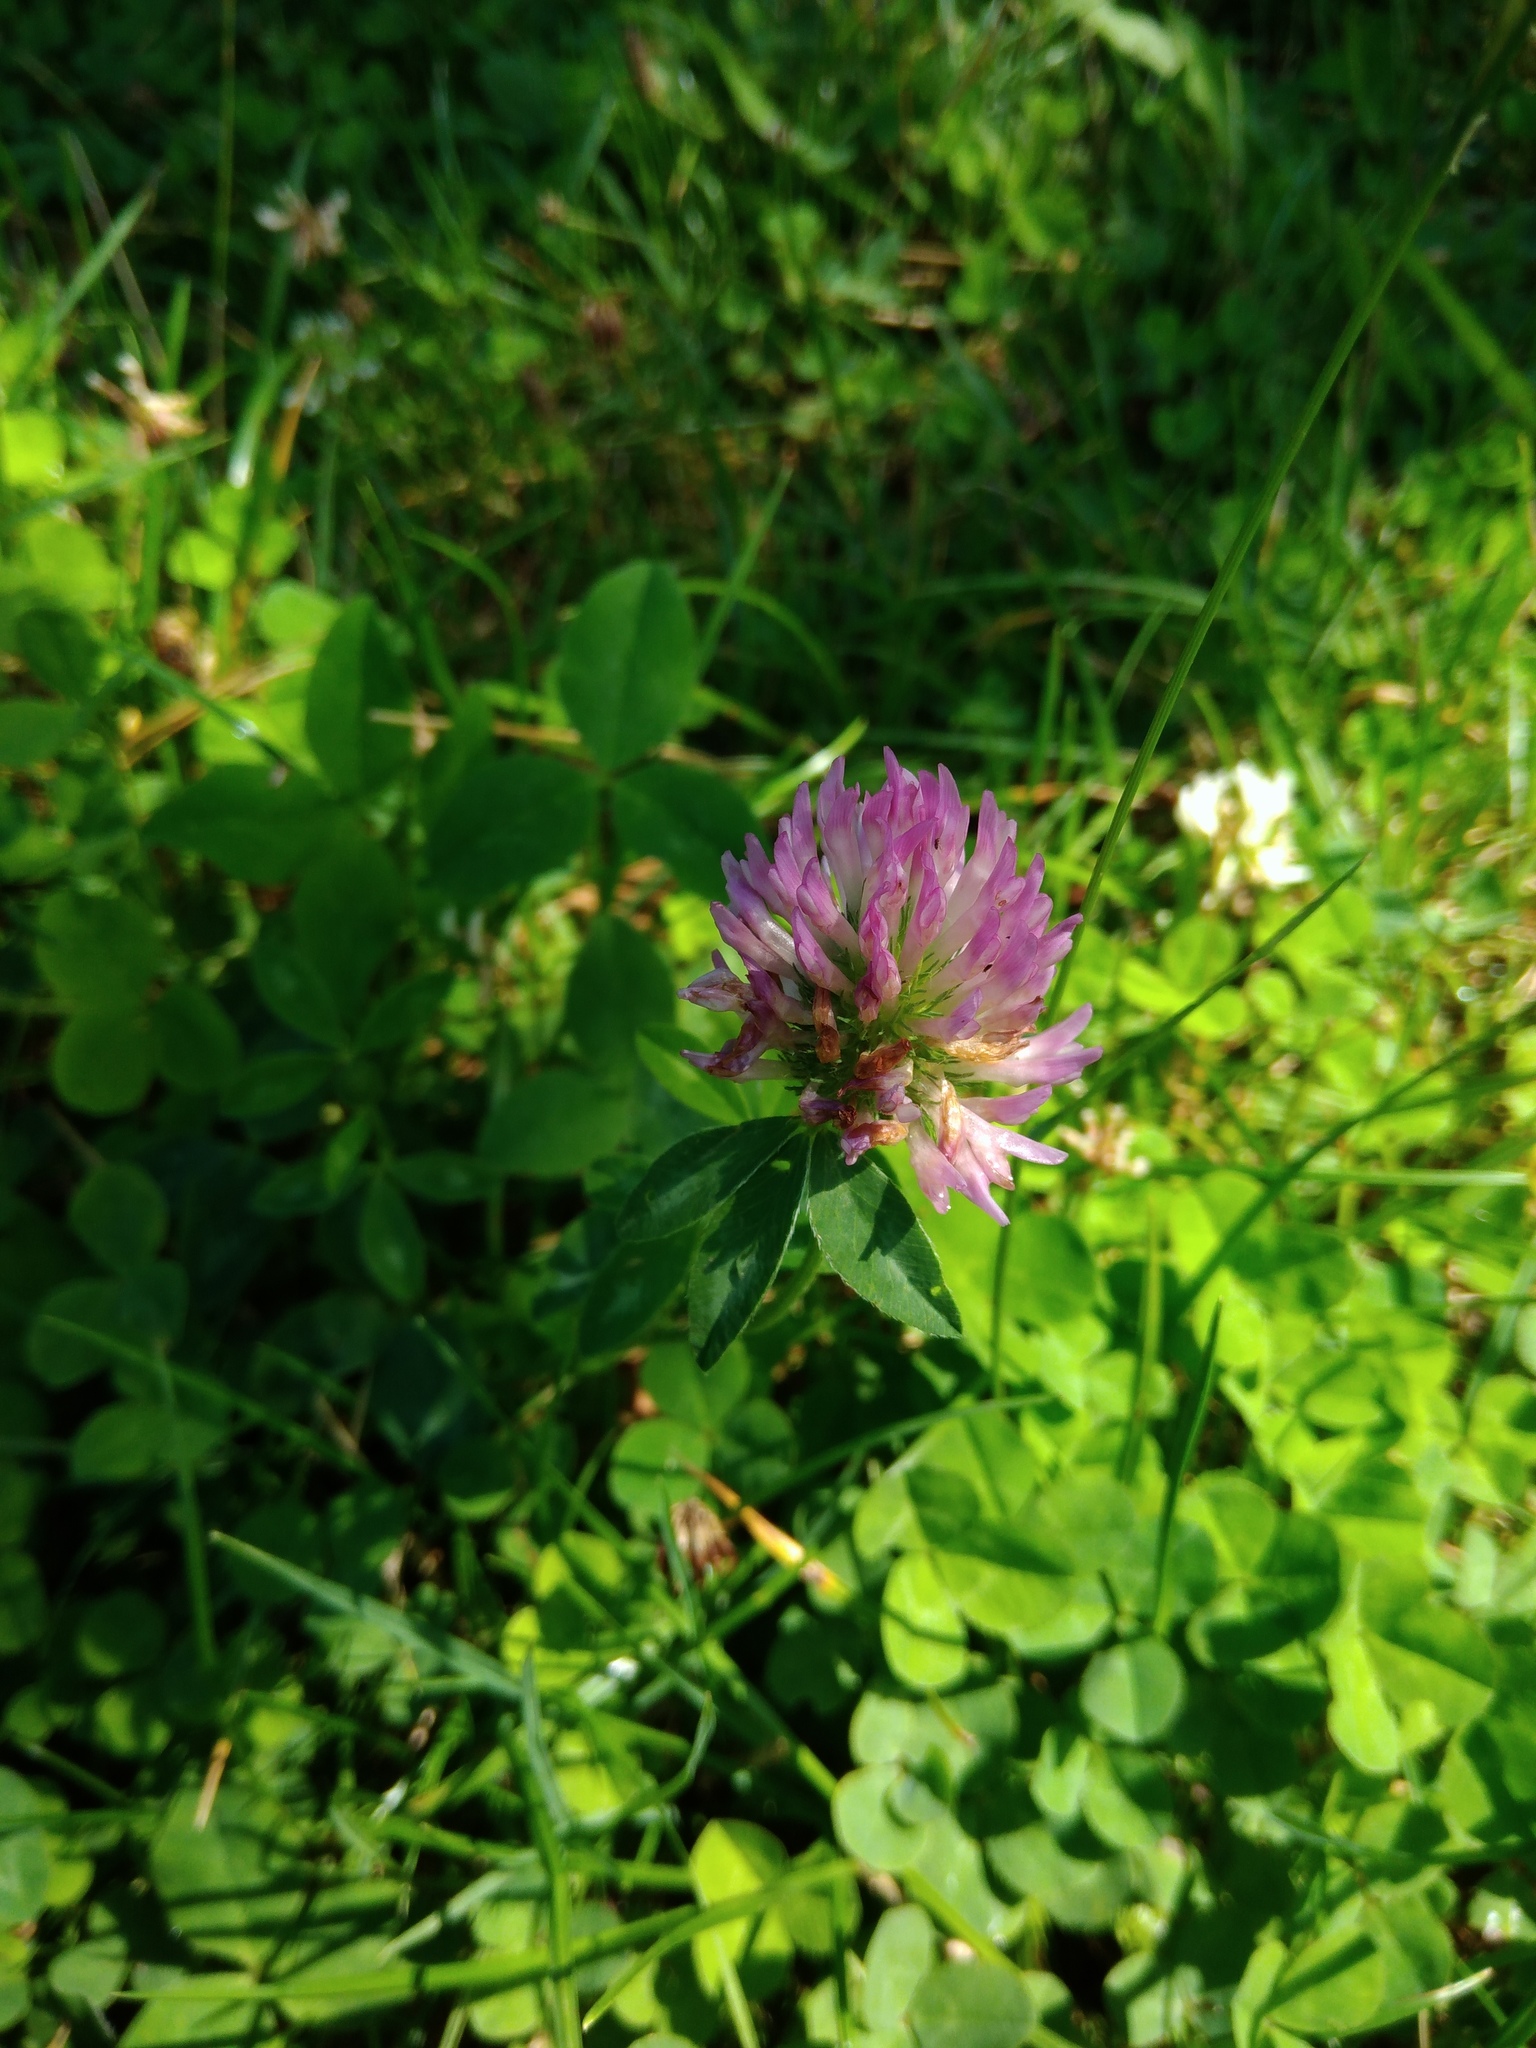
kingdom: Plantae
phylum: Tracheophyta
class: Magnoliopsida
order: Fabales
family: Fabaceae
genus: Trifolium
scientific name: Trifolium pratense
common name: Red clover
